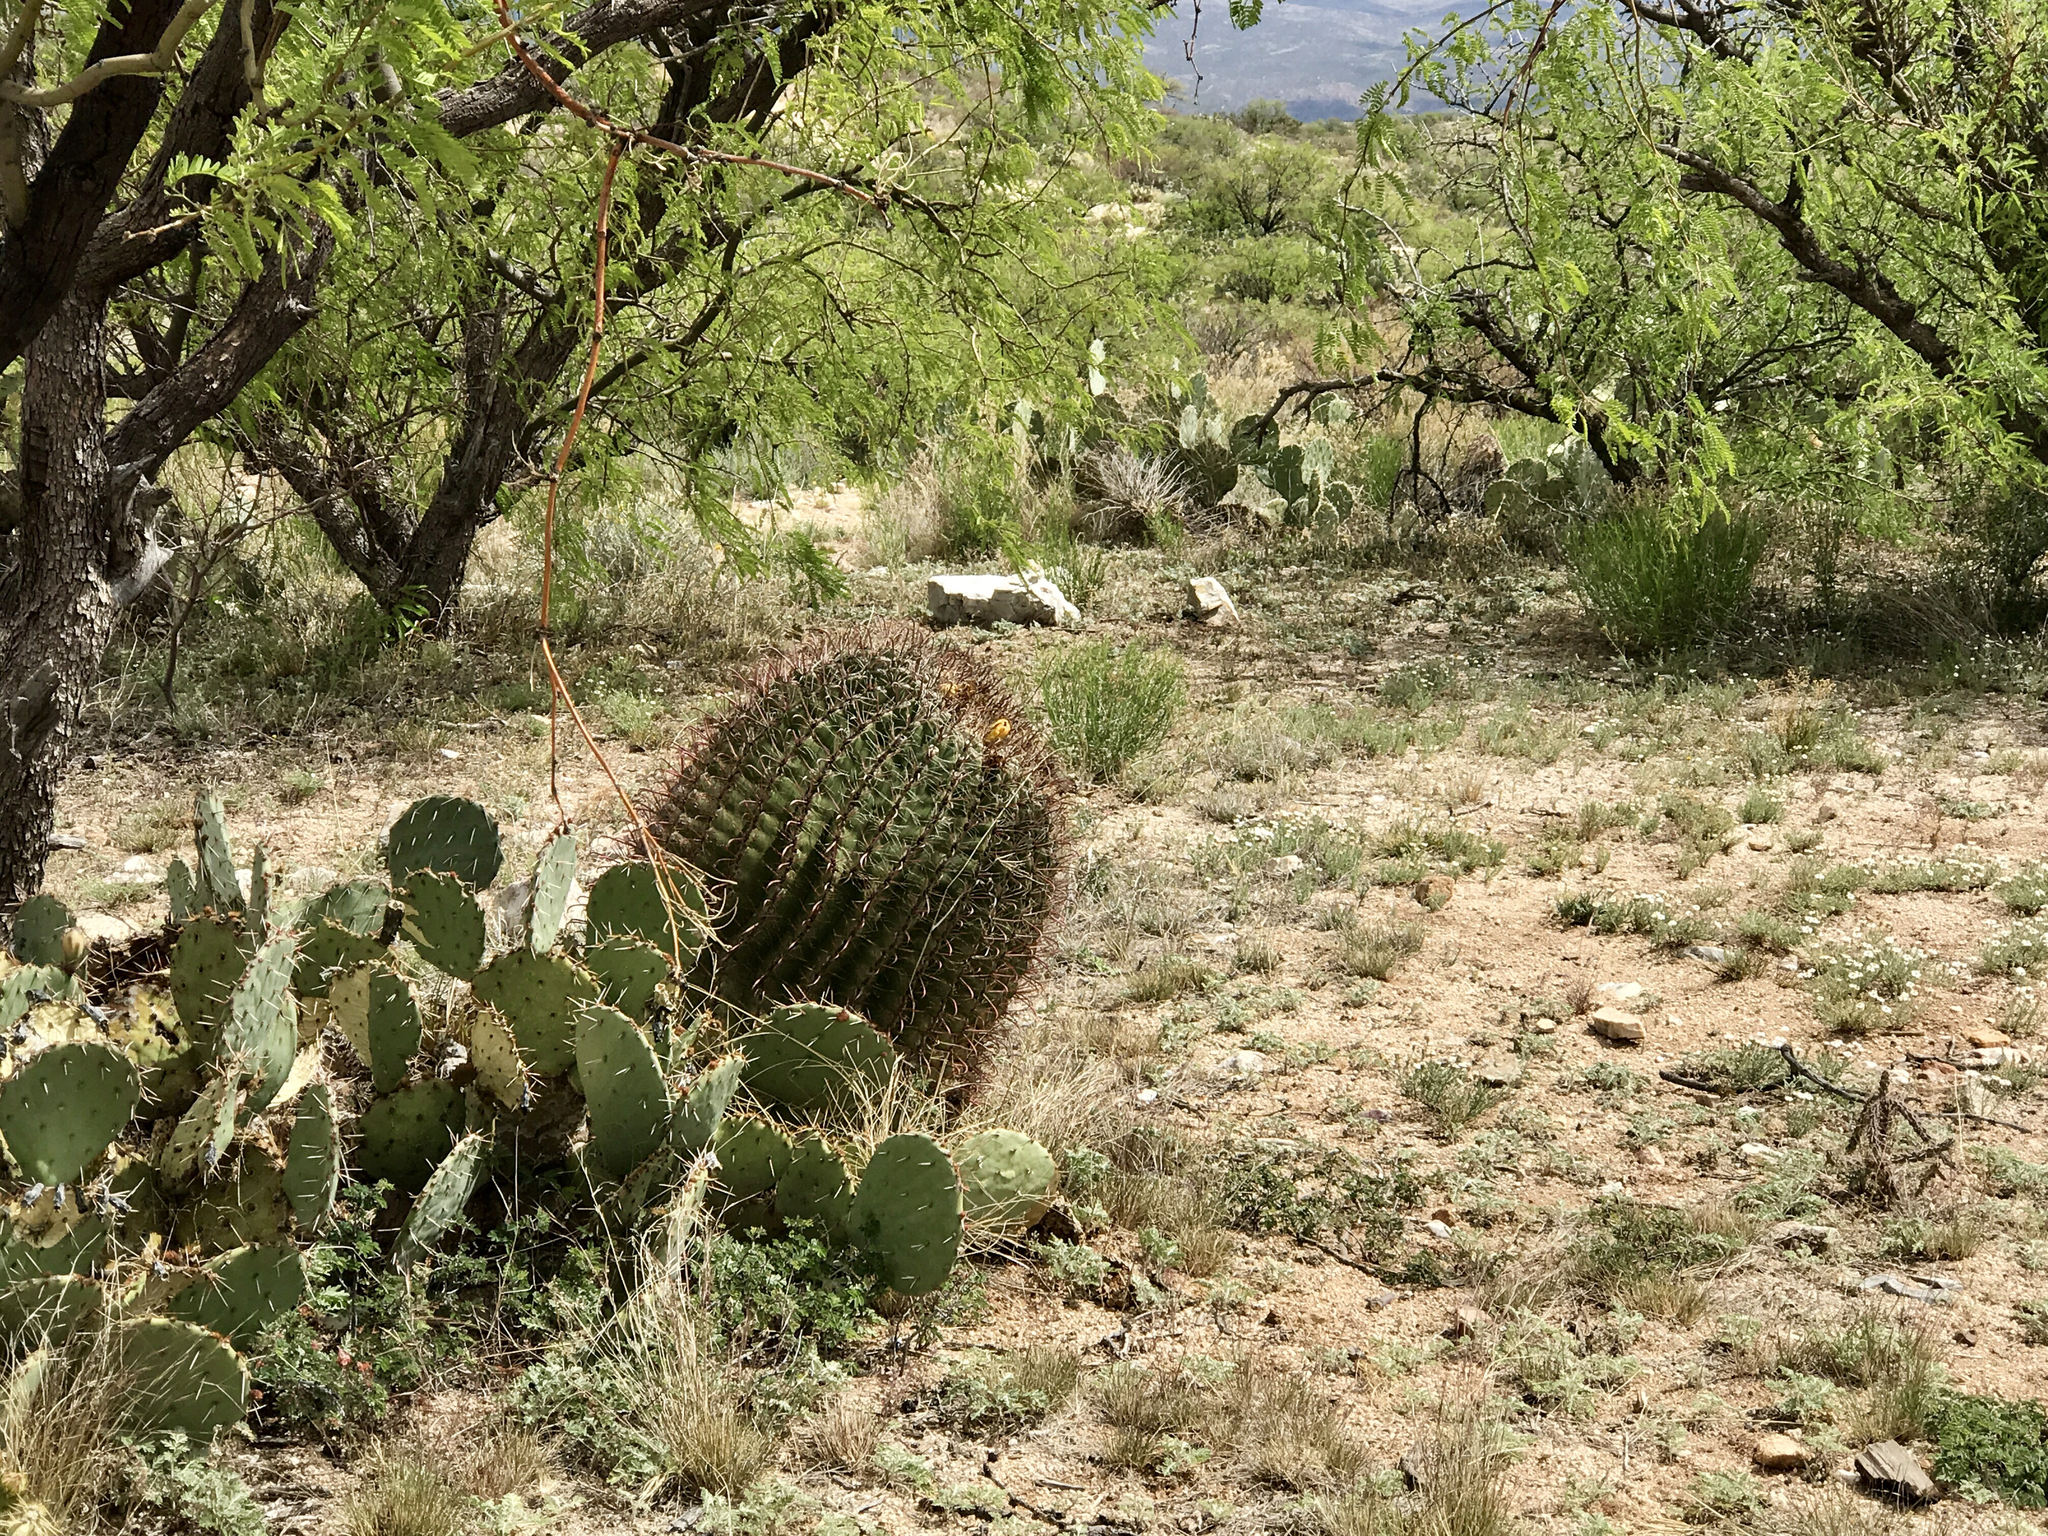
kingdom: Plantae
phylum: Tracheophyta
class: Magnoliopsida
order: Caryophyllales
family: Cactaceae
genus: Ferocactus
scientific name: Ferocactus wislizeni
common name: Candy barrel cactus
